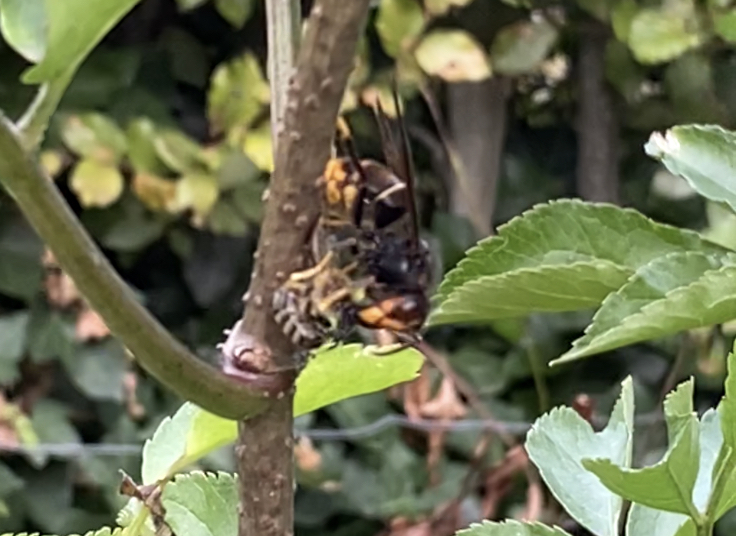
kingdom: Animalia
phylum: Arthropoda
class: Insecta
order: Hymenoptera
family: Vespidae
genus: Vespa
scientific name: Vespa velutina
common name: Asian hornet
